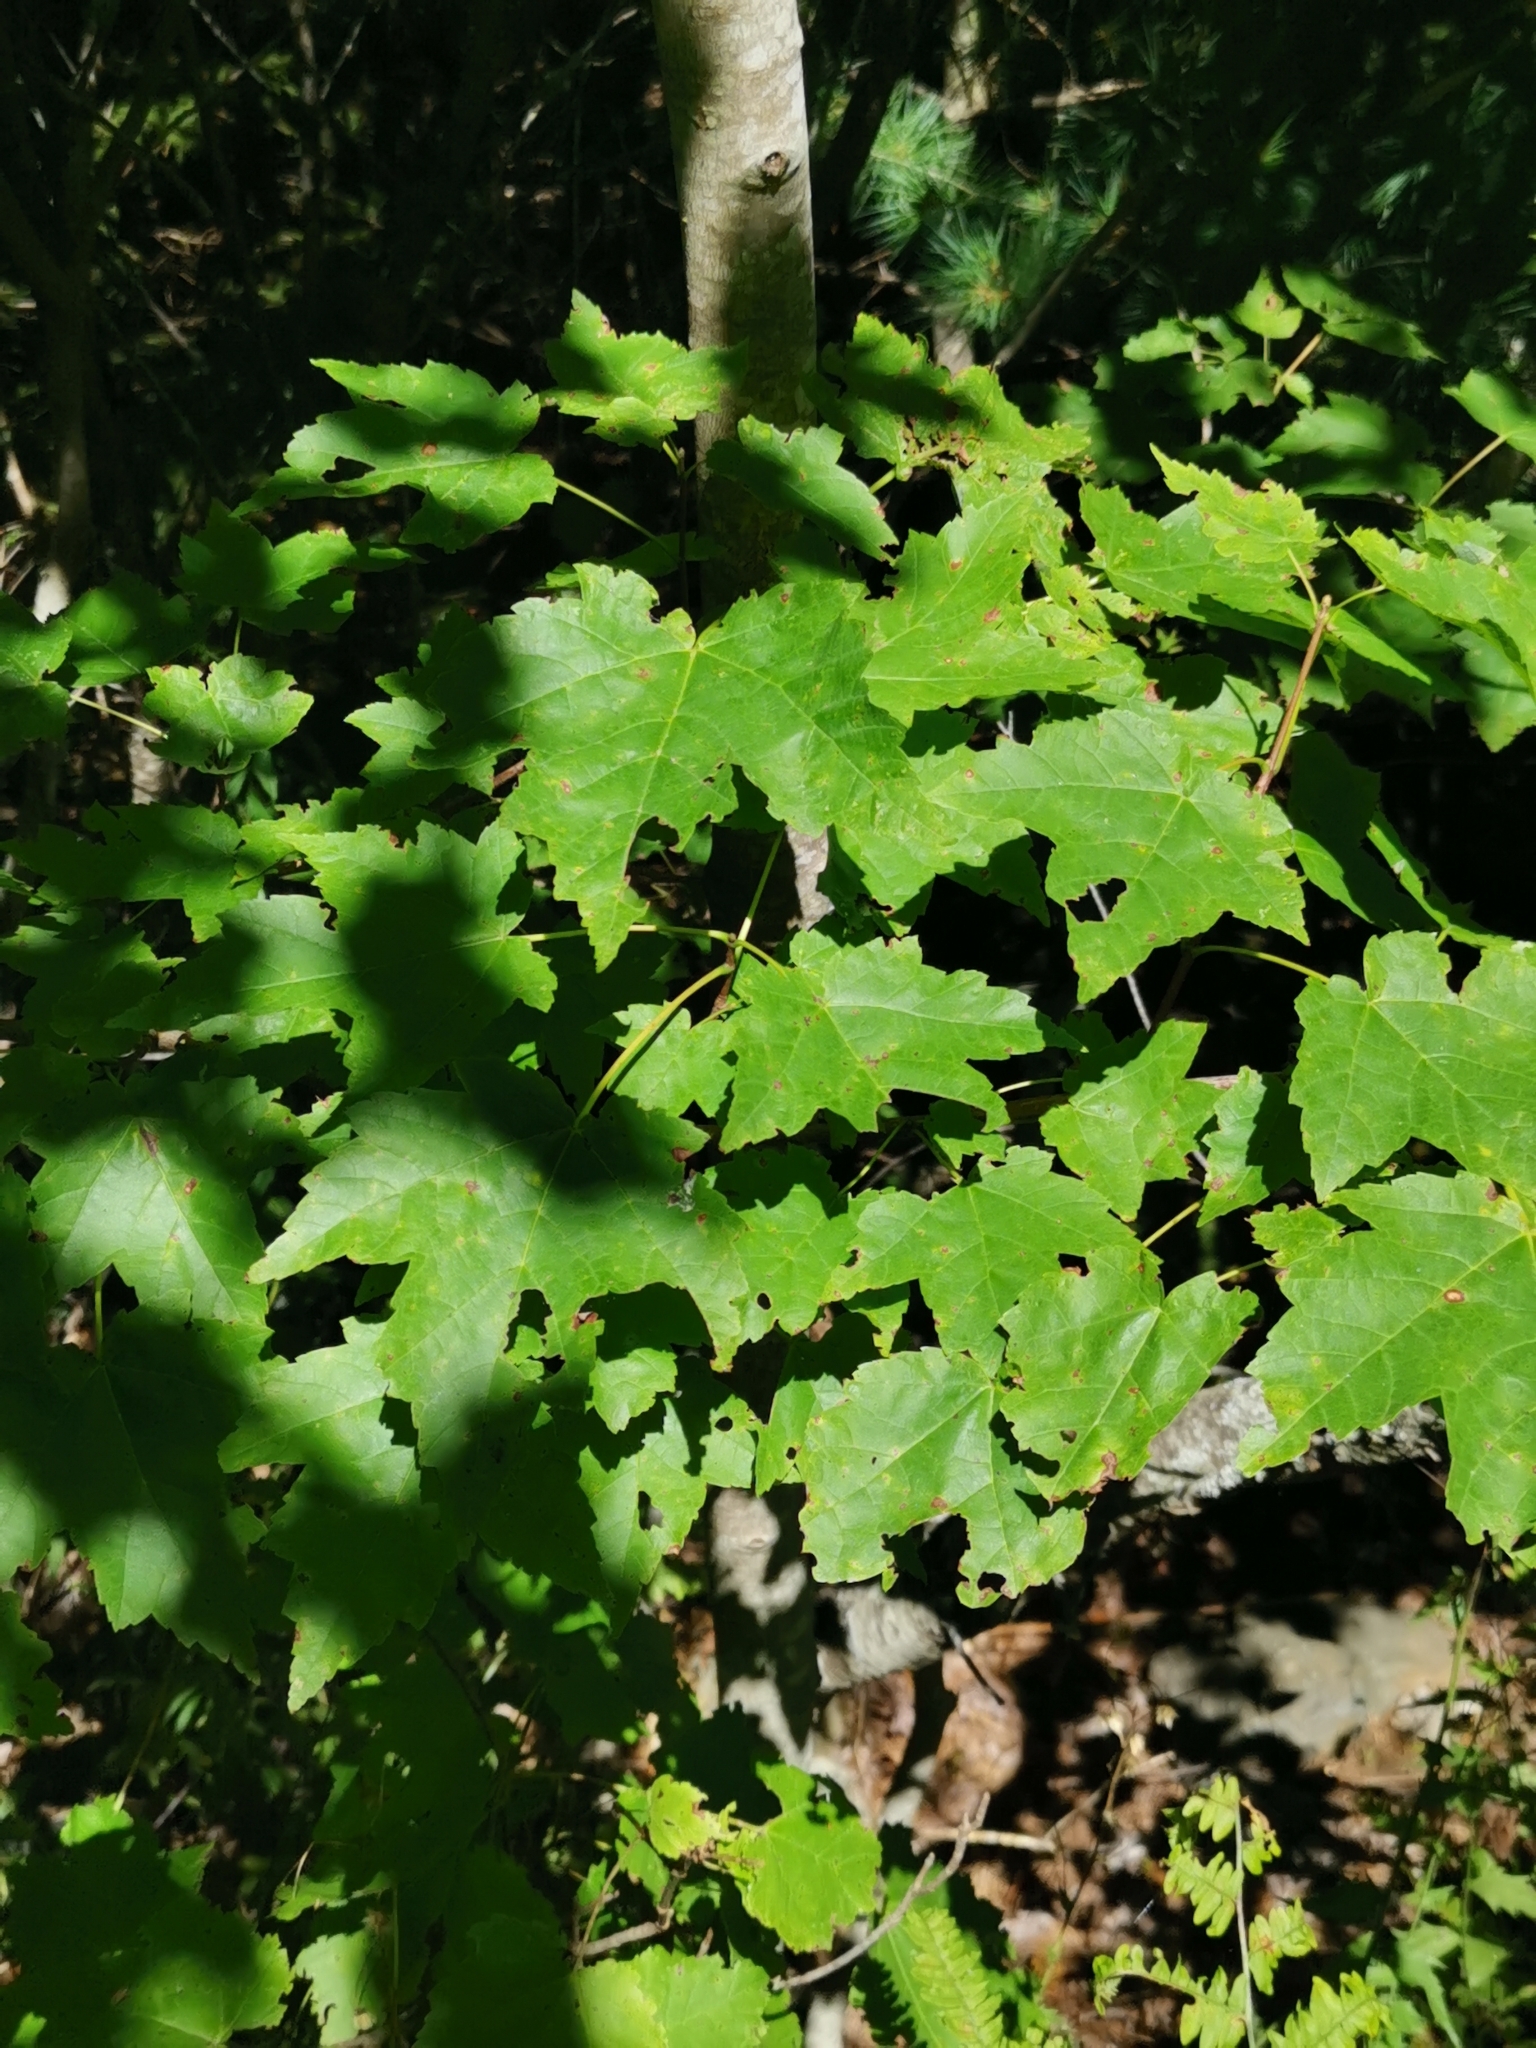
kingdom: Plantae
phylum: Tracheophyta
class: Magnoliopsida
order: Sapindales
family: Sapindaceae
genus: Acer
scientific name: Acer rubrum
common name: Red maple
